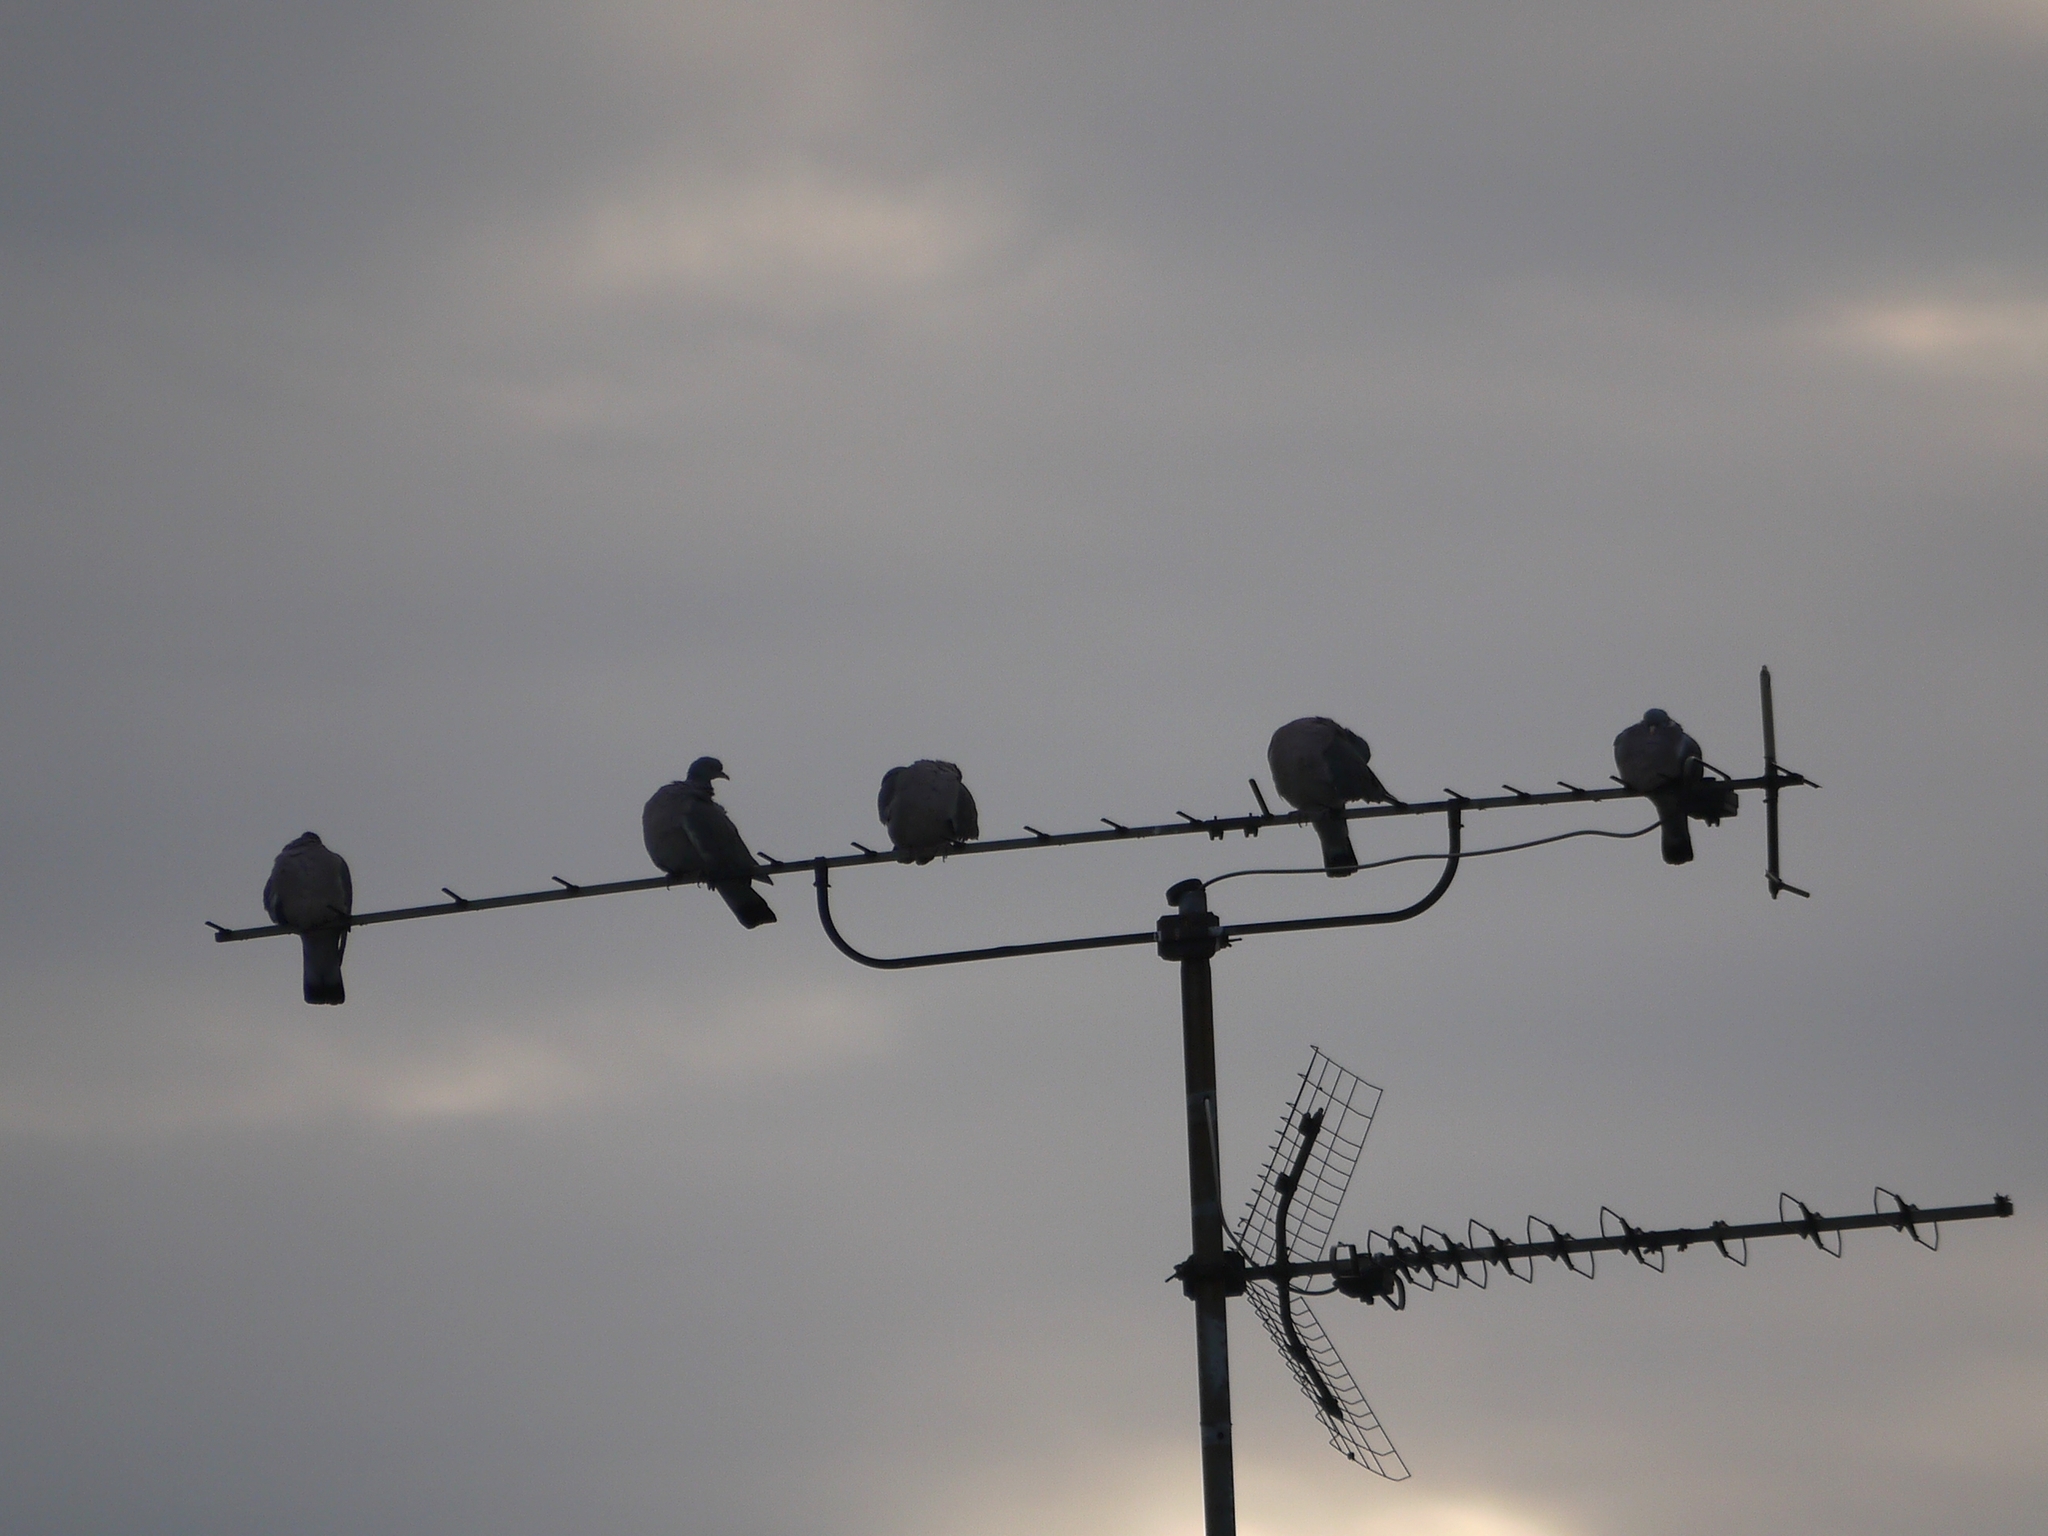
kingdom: Animalia
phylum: Chordata
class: Aves
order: Columbiformes
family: Columbidae
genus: Columba
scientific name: Columba palumbus
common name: Common wood pigeon
